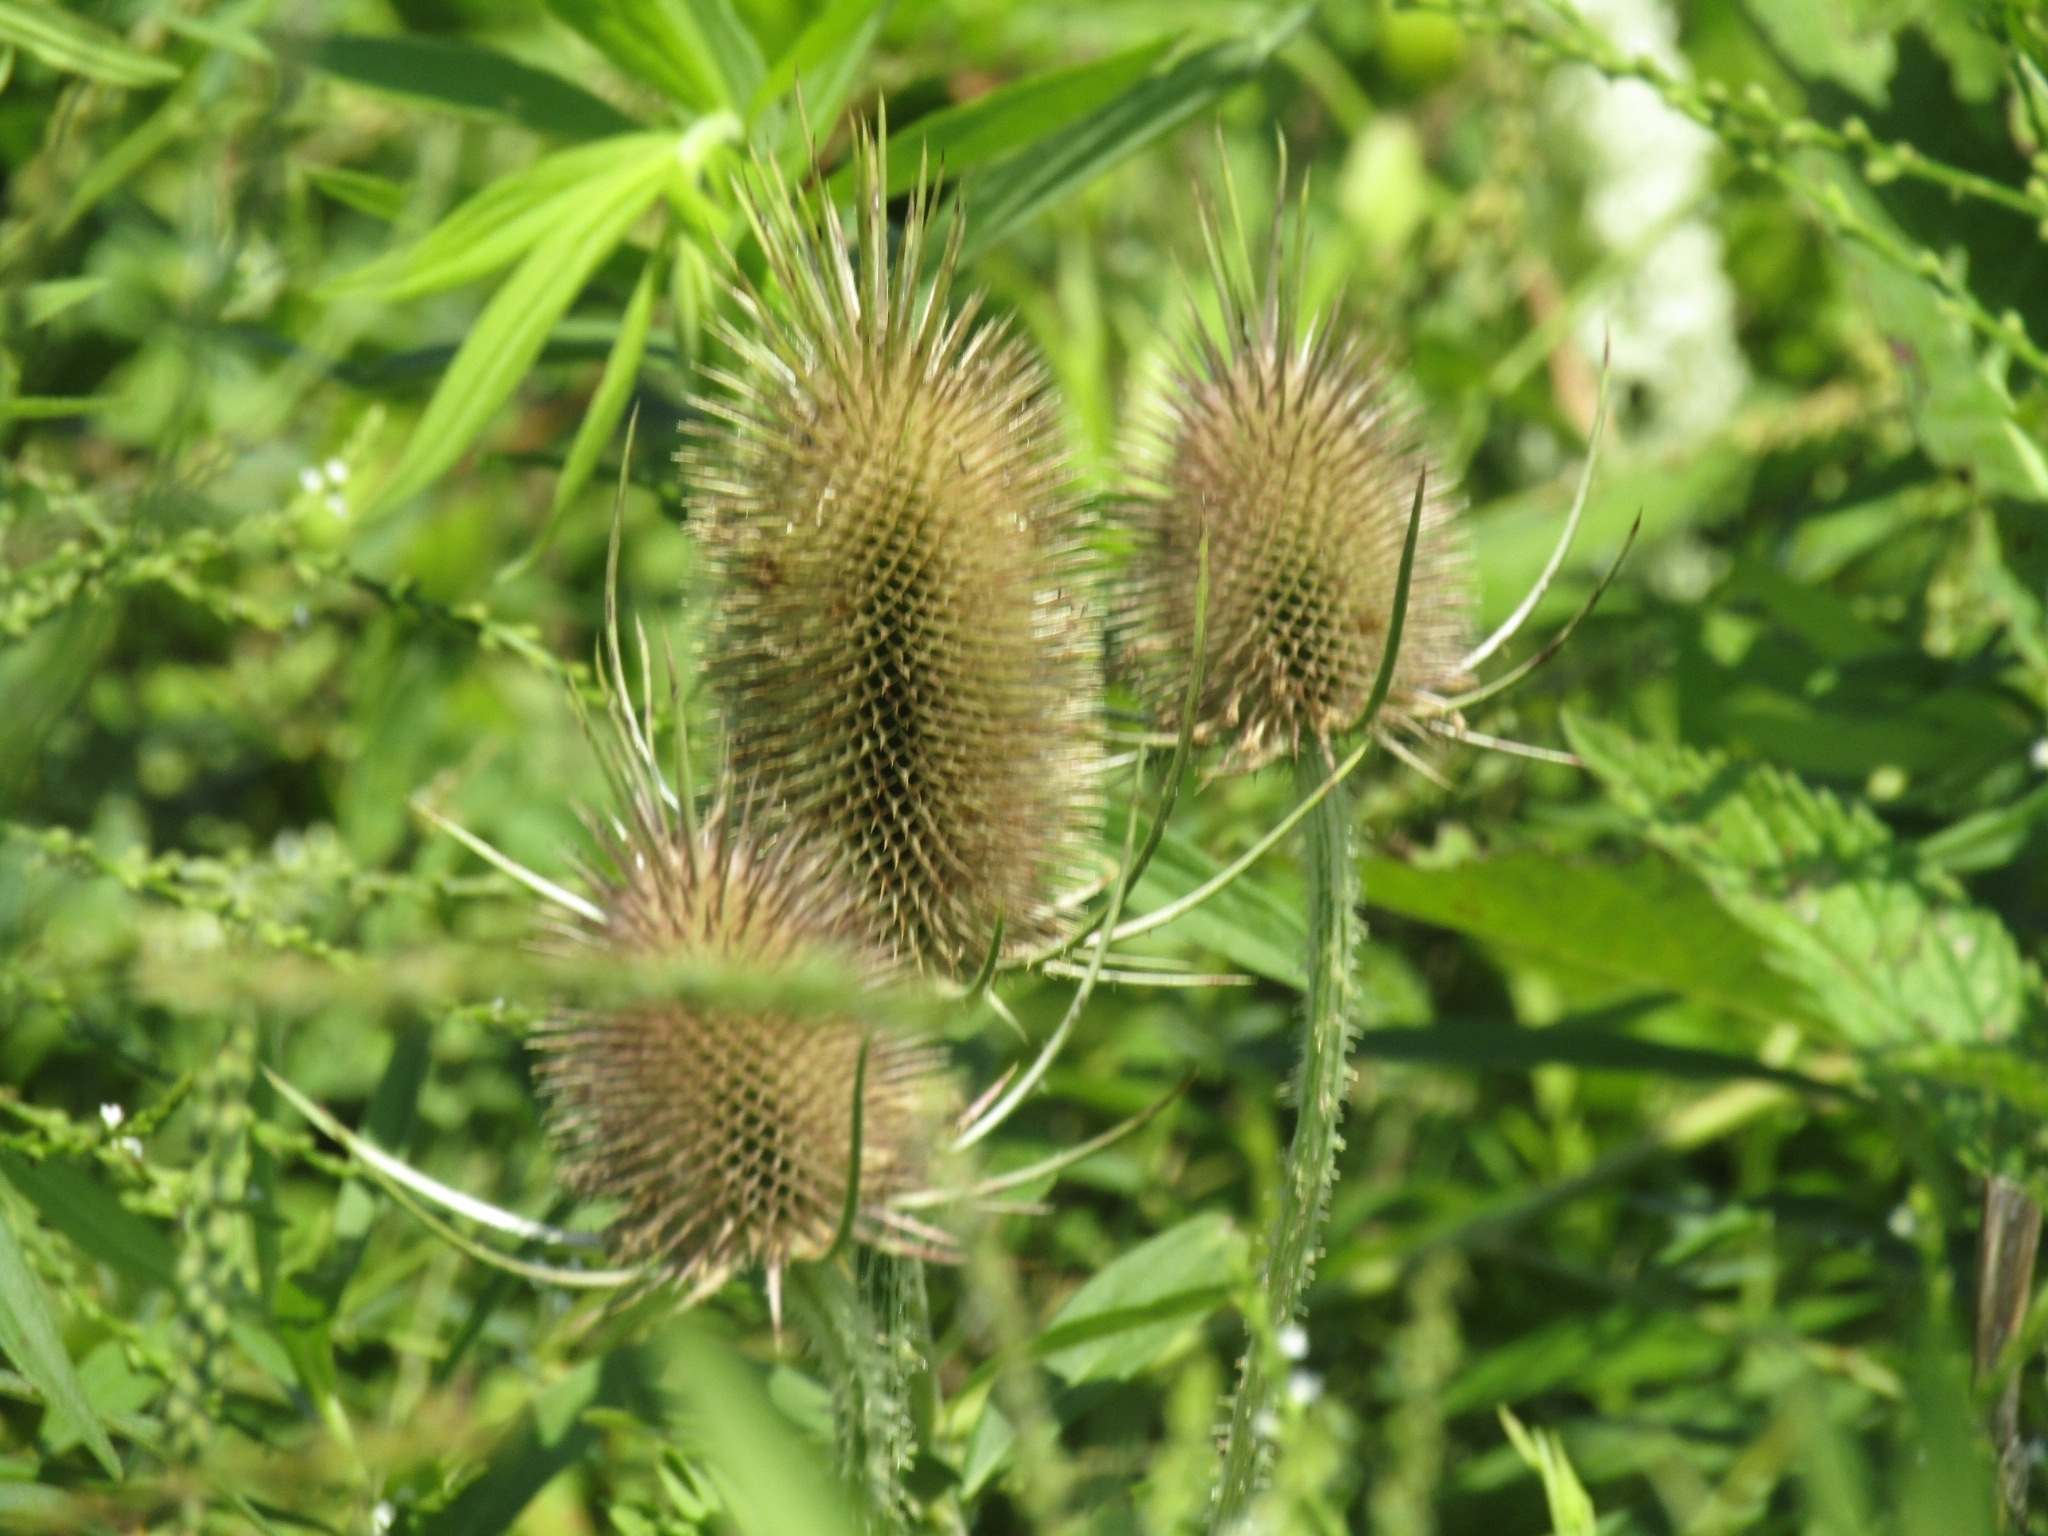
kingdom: Plantae
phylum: Tracheophyta
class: Magnoliopsida
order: Dipsacales
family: Caprifoliaceae
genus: Dipsacus
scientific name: Dipsacus fullonum
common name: Teasel
